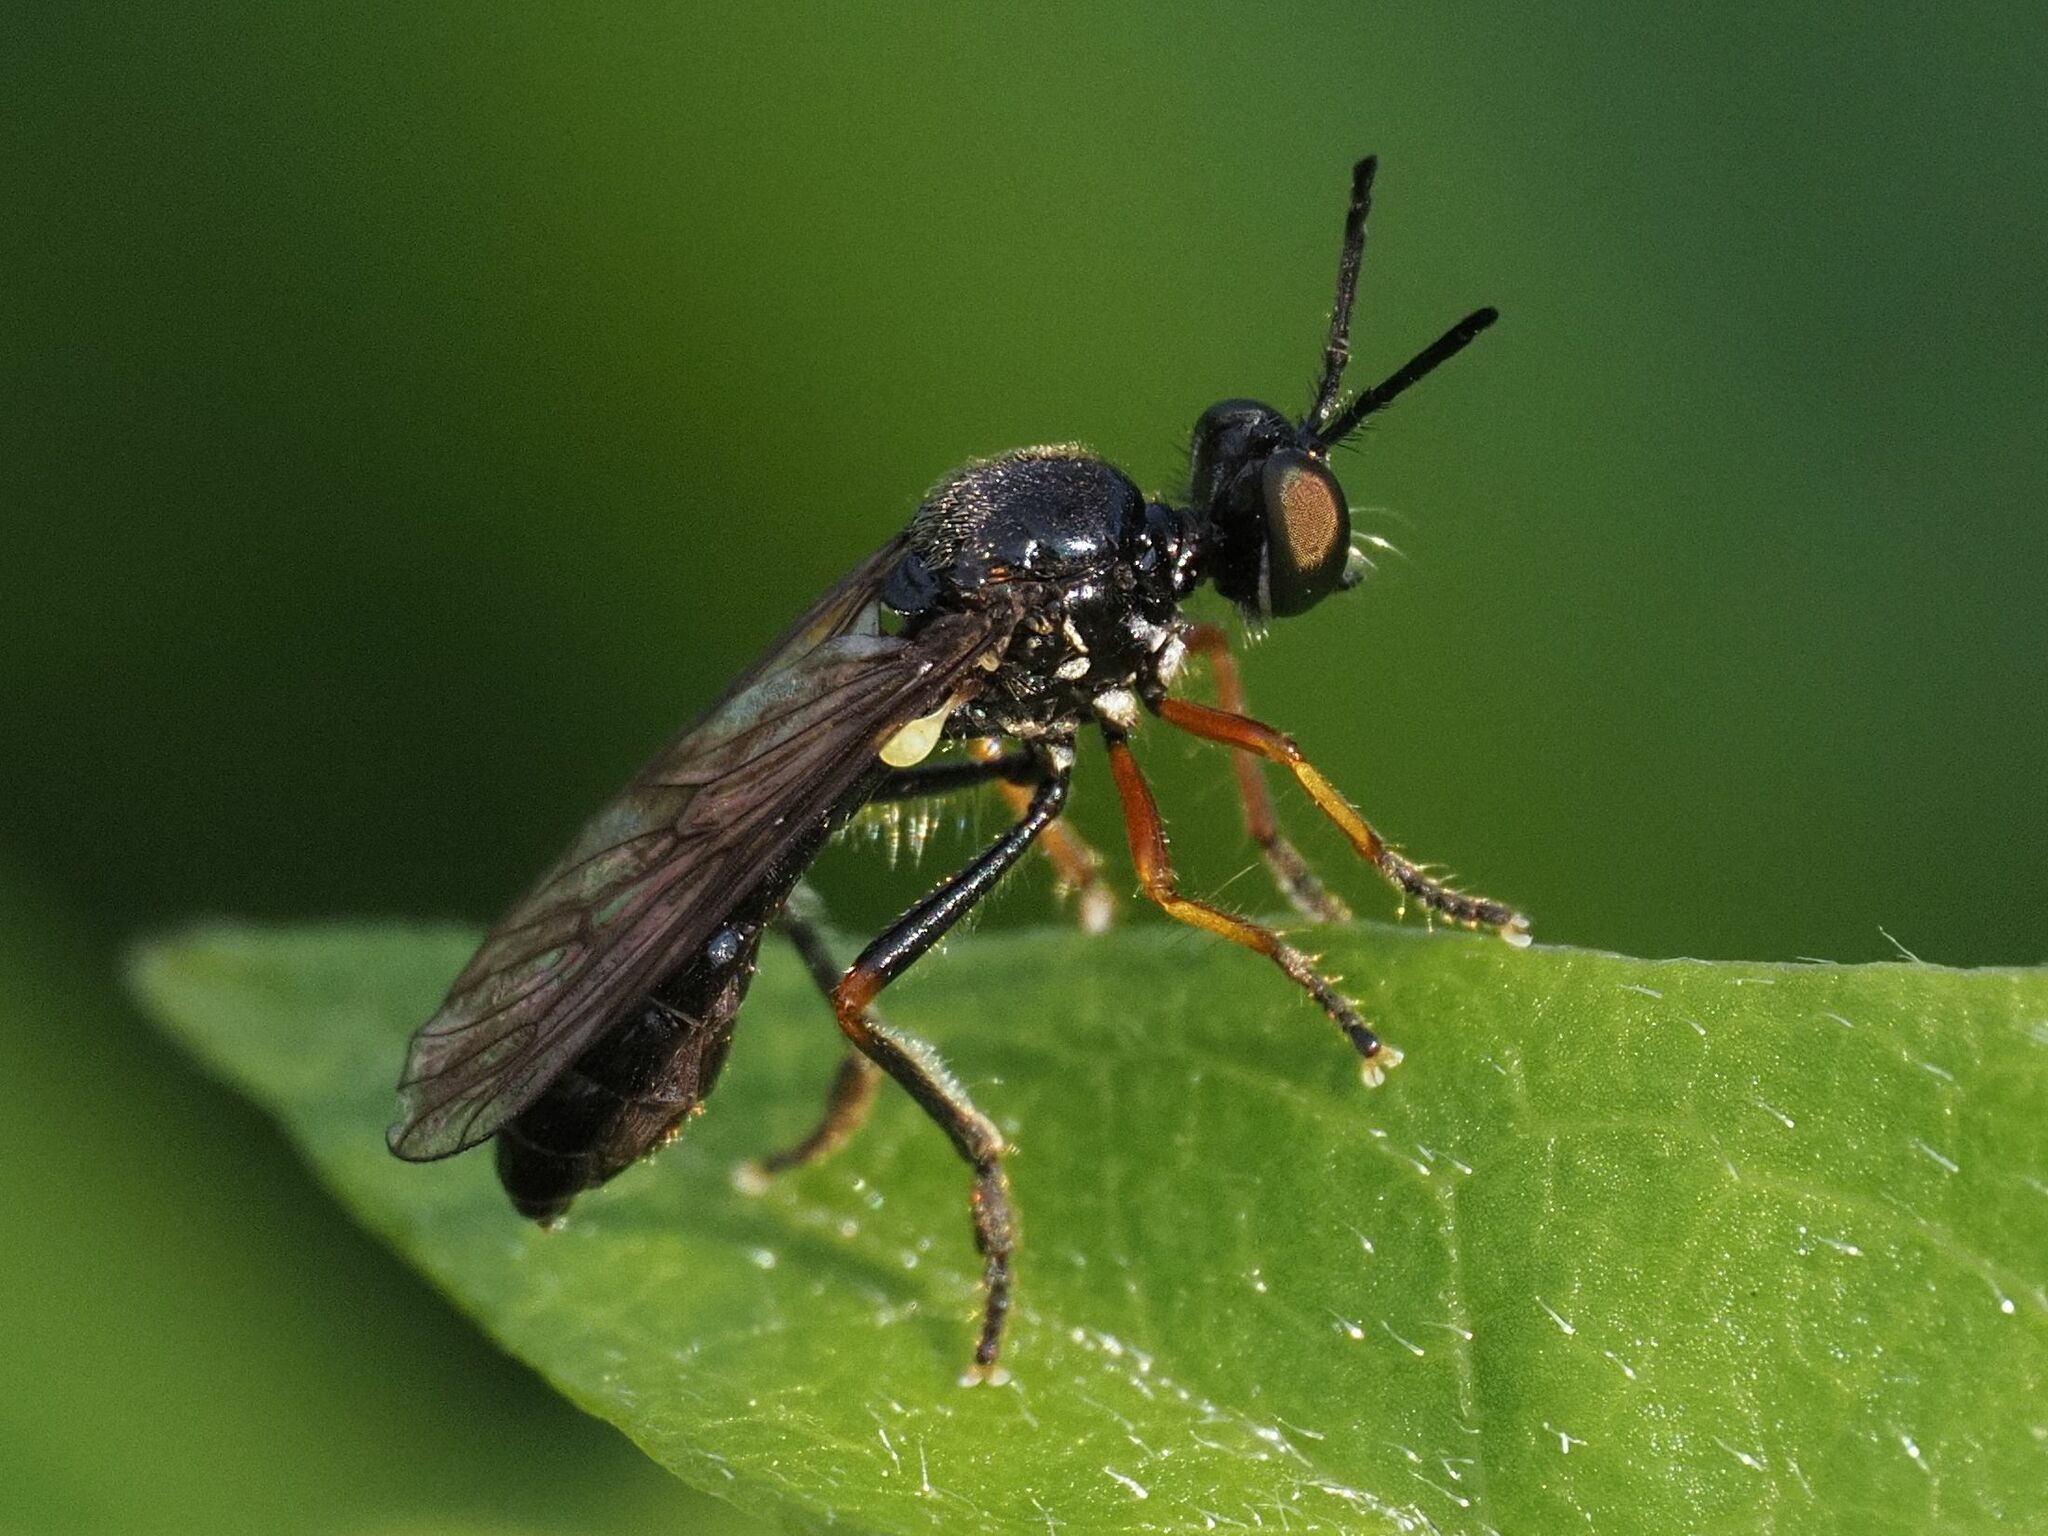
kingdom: Animalia
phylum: Arthropoda
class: Insecta
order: Diptera
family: Asilidae
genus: Dioctria
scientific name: Dioctria longicornis
